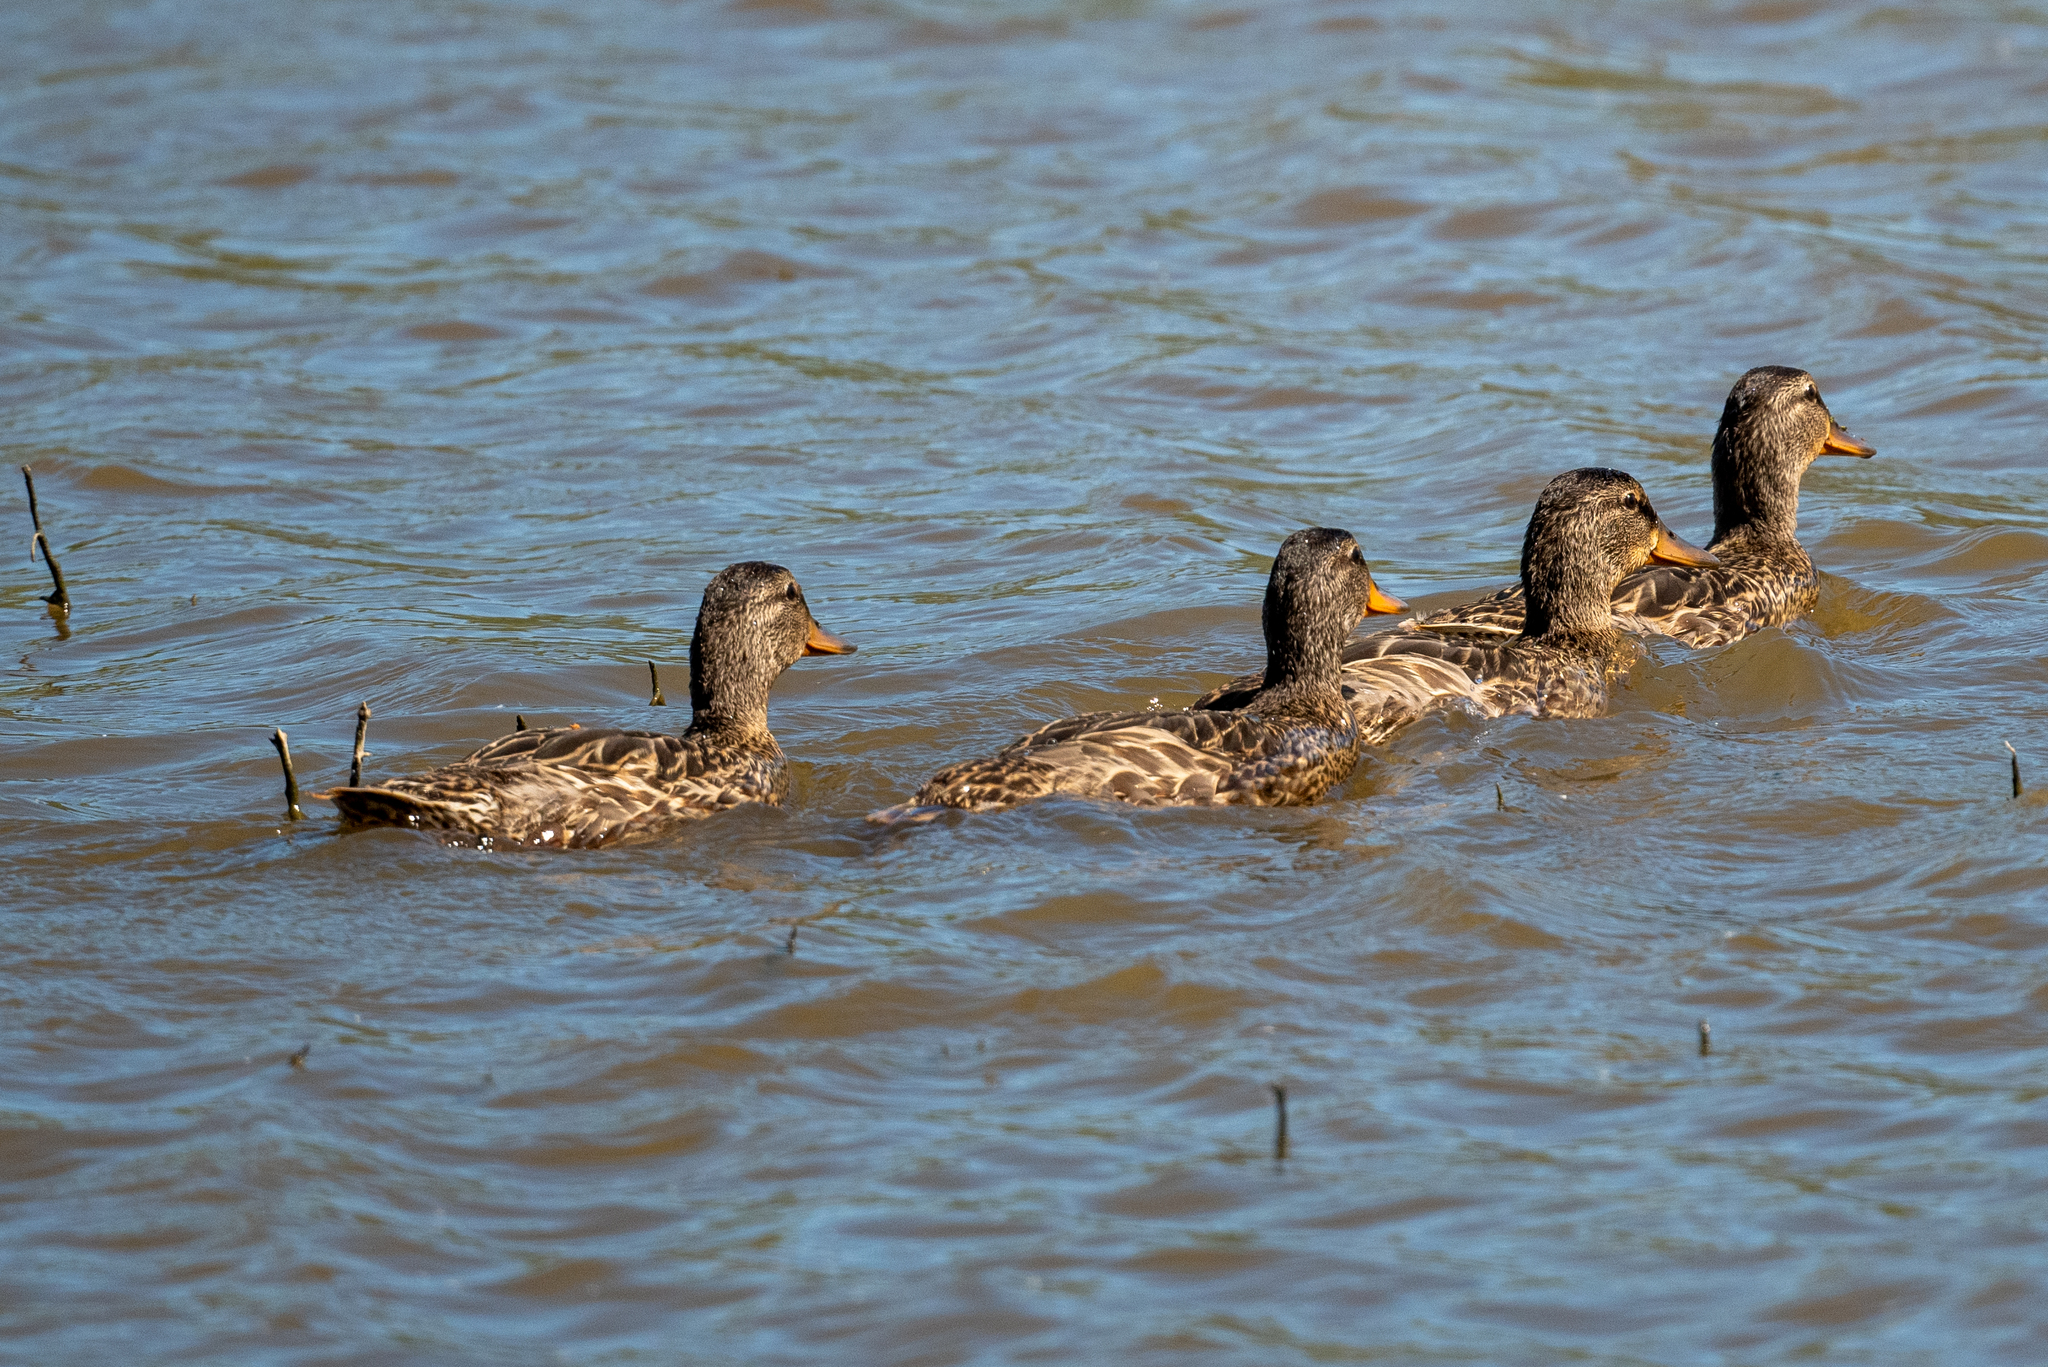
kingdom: Animalia
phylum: Chordata
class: Aves
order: Anseriformes
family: Anatidae
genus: Anas
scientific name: Anas platyrhynchos
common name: Mallard
